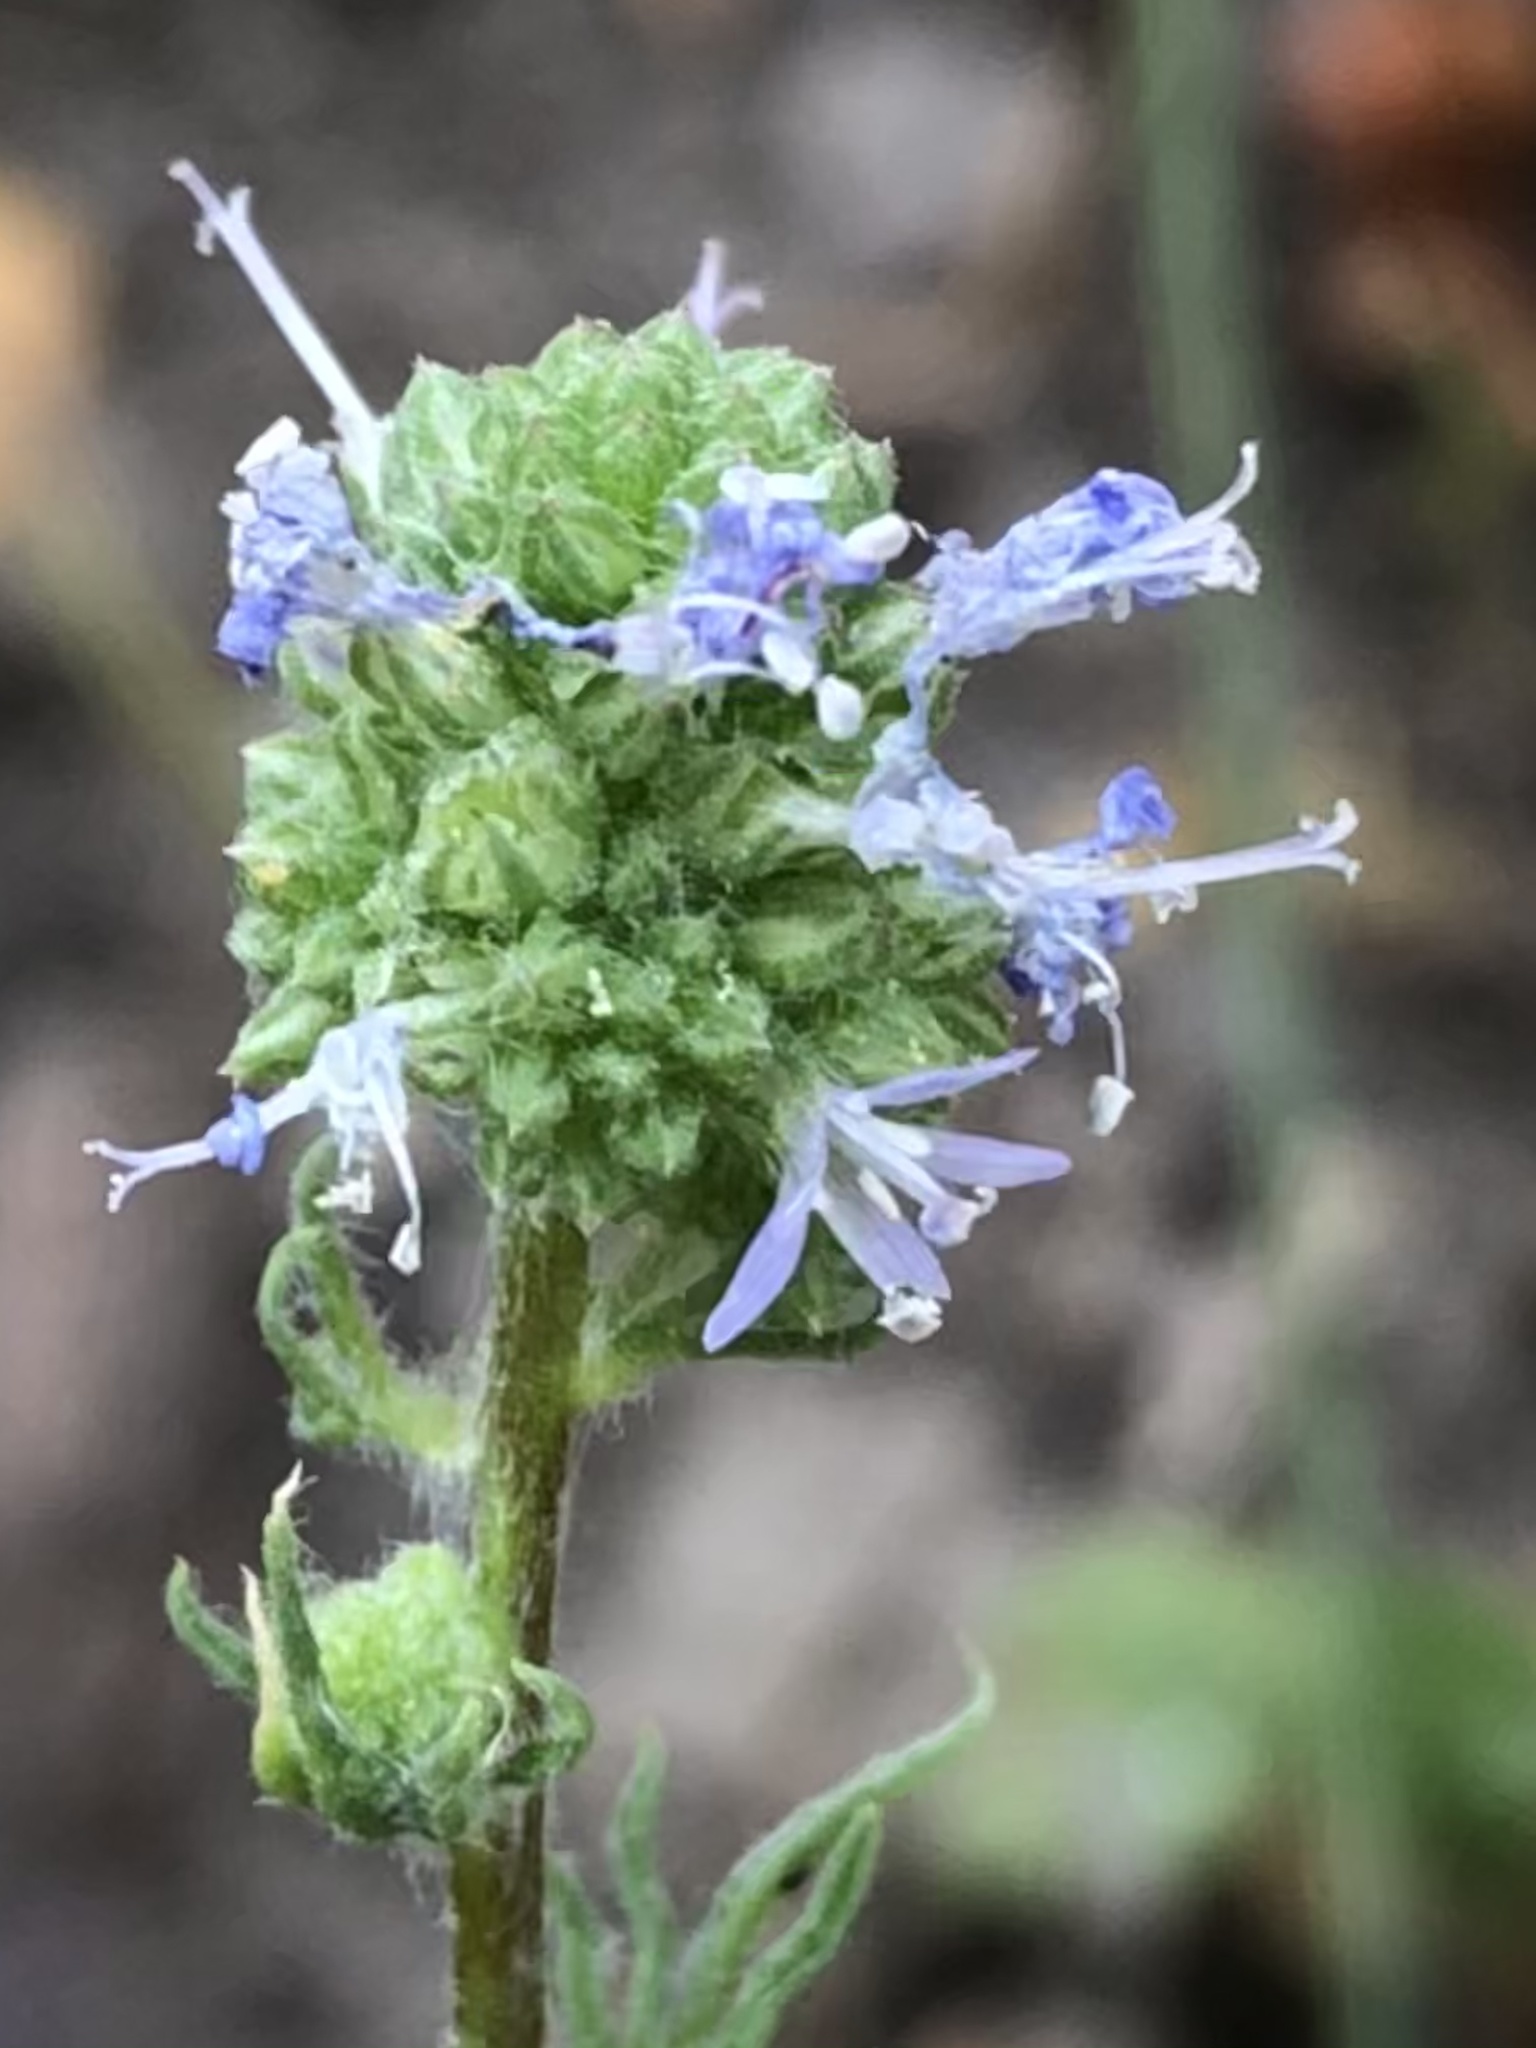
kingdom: Plantae
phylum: Tracheophyta
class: Magnoliopsida
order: Ericales
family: Polemoniaceae
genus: Gilia
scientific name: Gilia capitata
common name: Bluehead gilia
